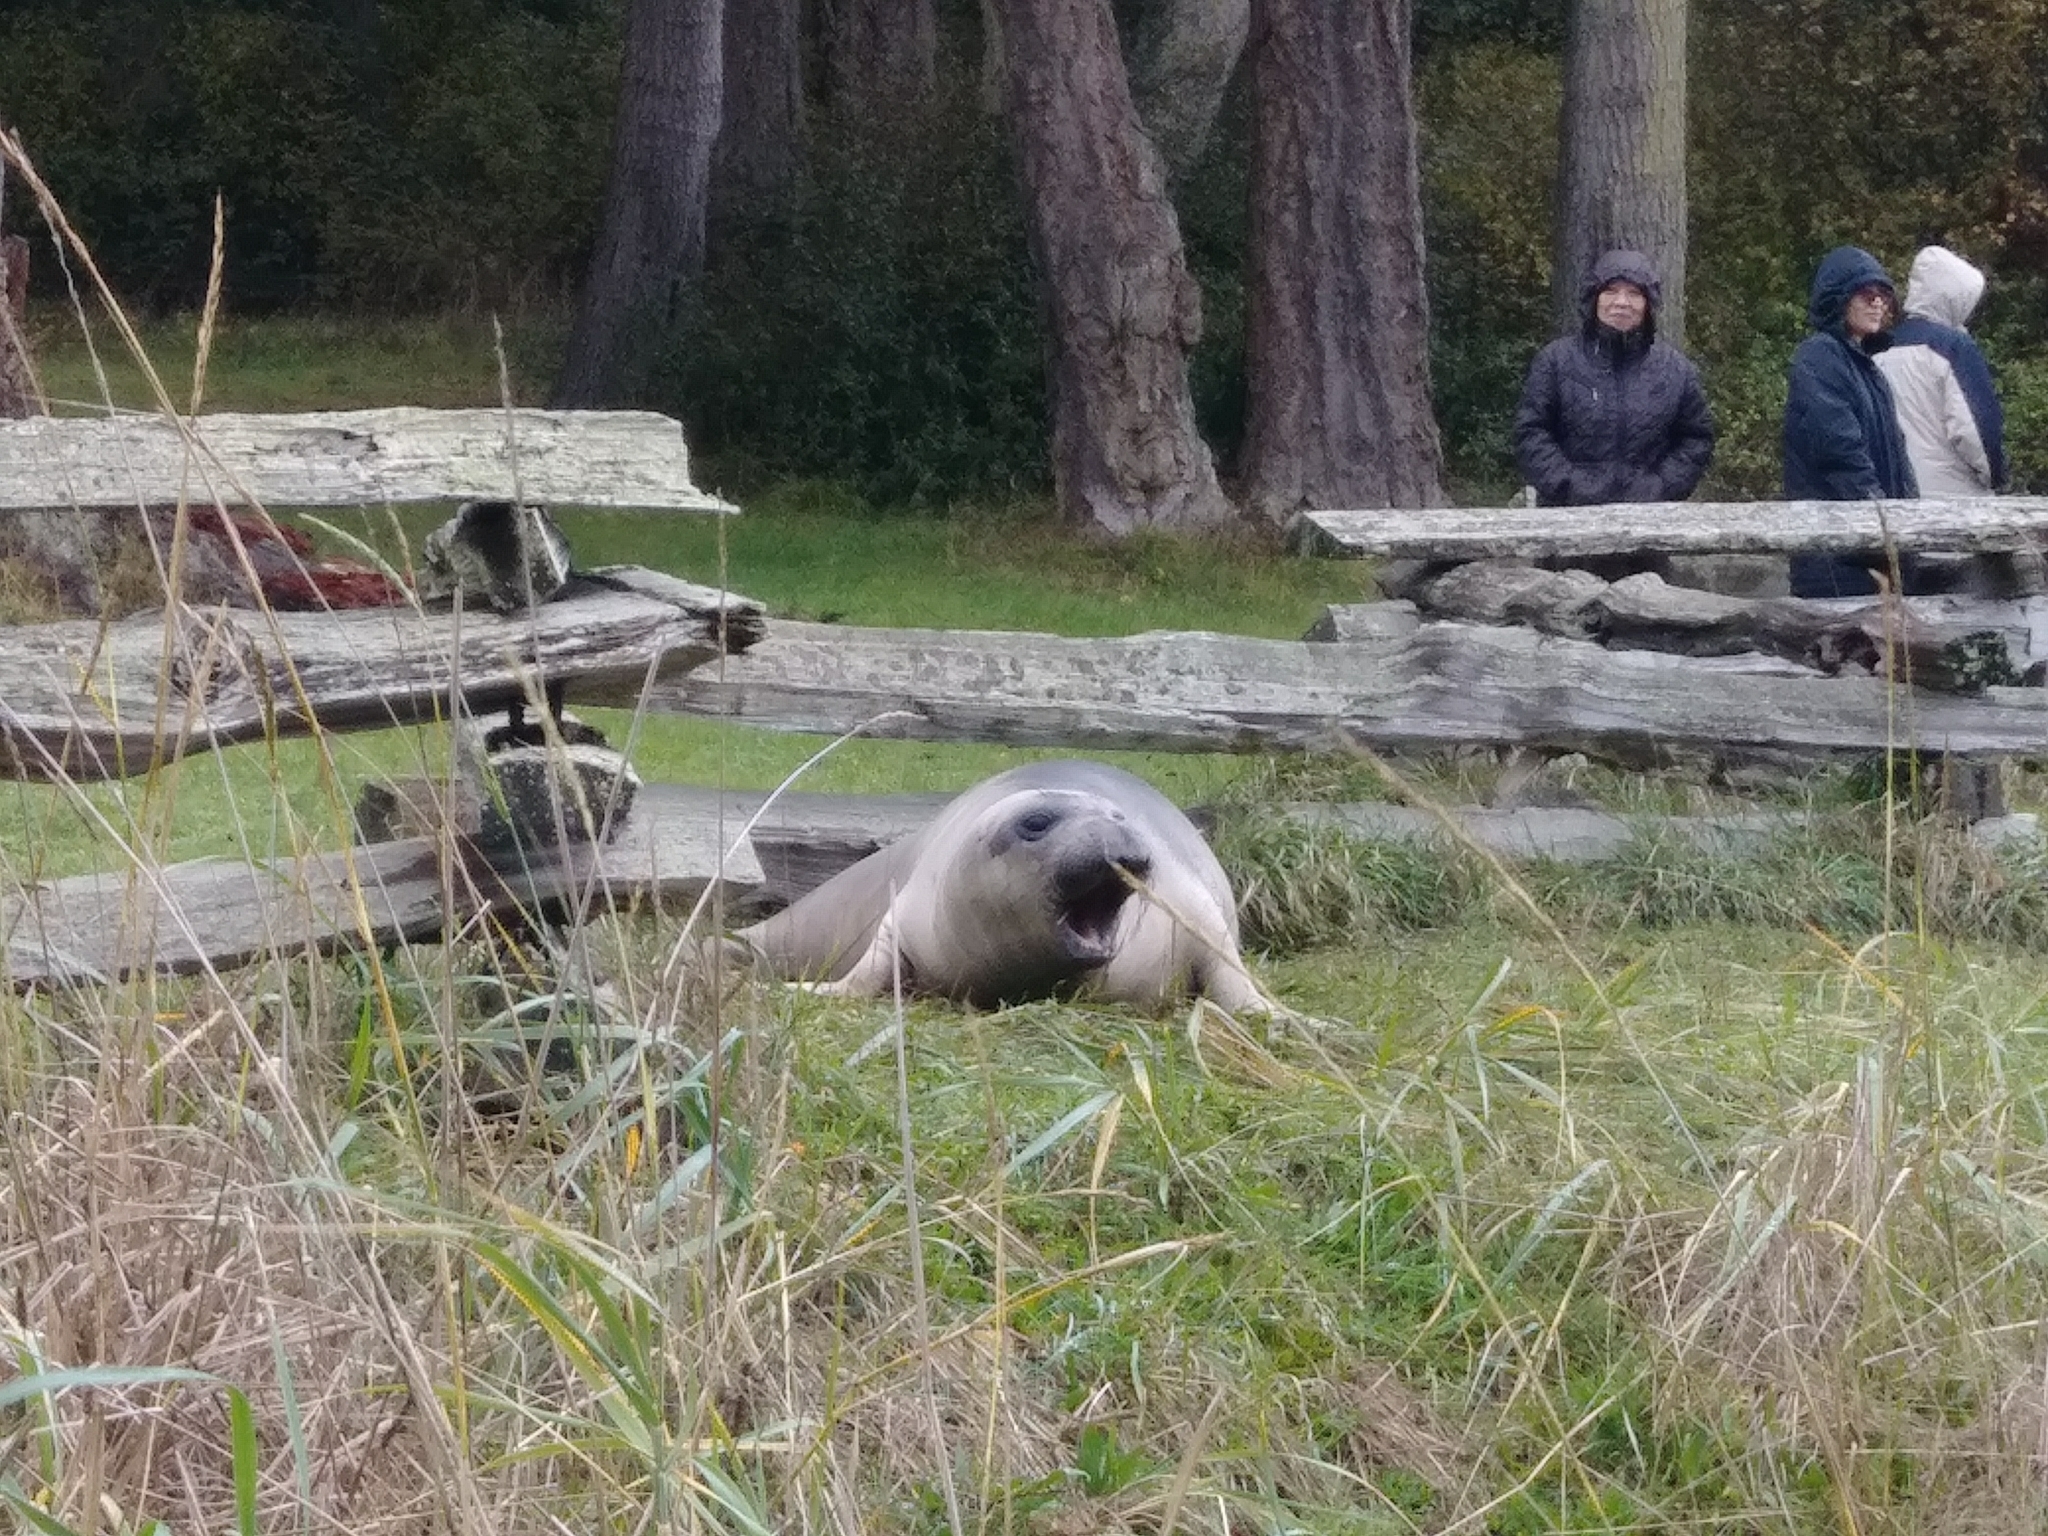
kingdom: Animalia
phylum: Chordata
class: Mammalia
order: Carnivora
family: Phocidae
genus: Mirounga
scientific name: Mirounga angustirostris
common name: Northern elephant seal
